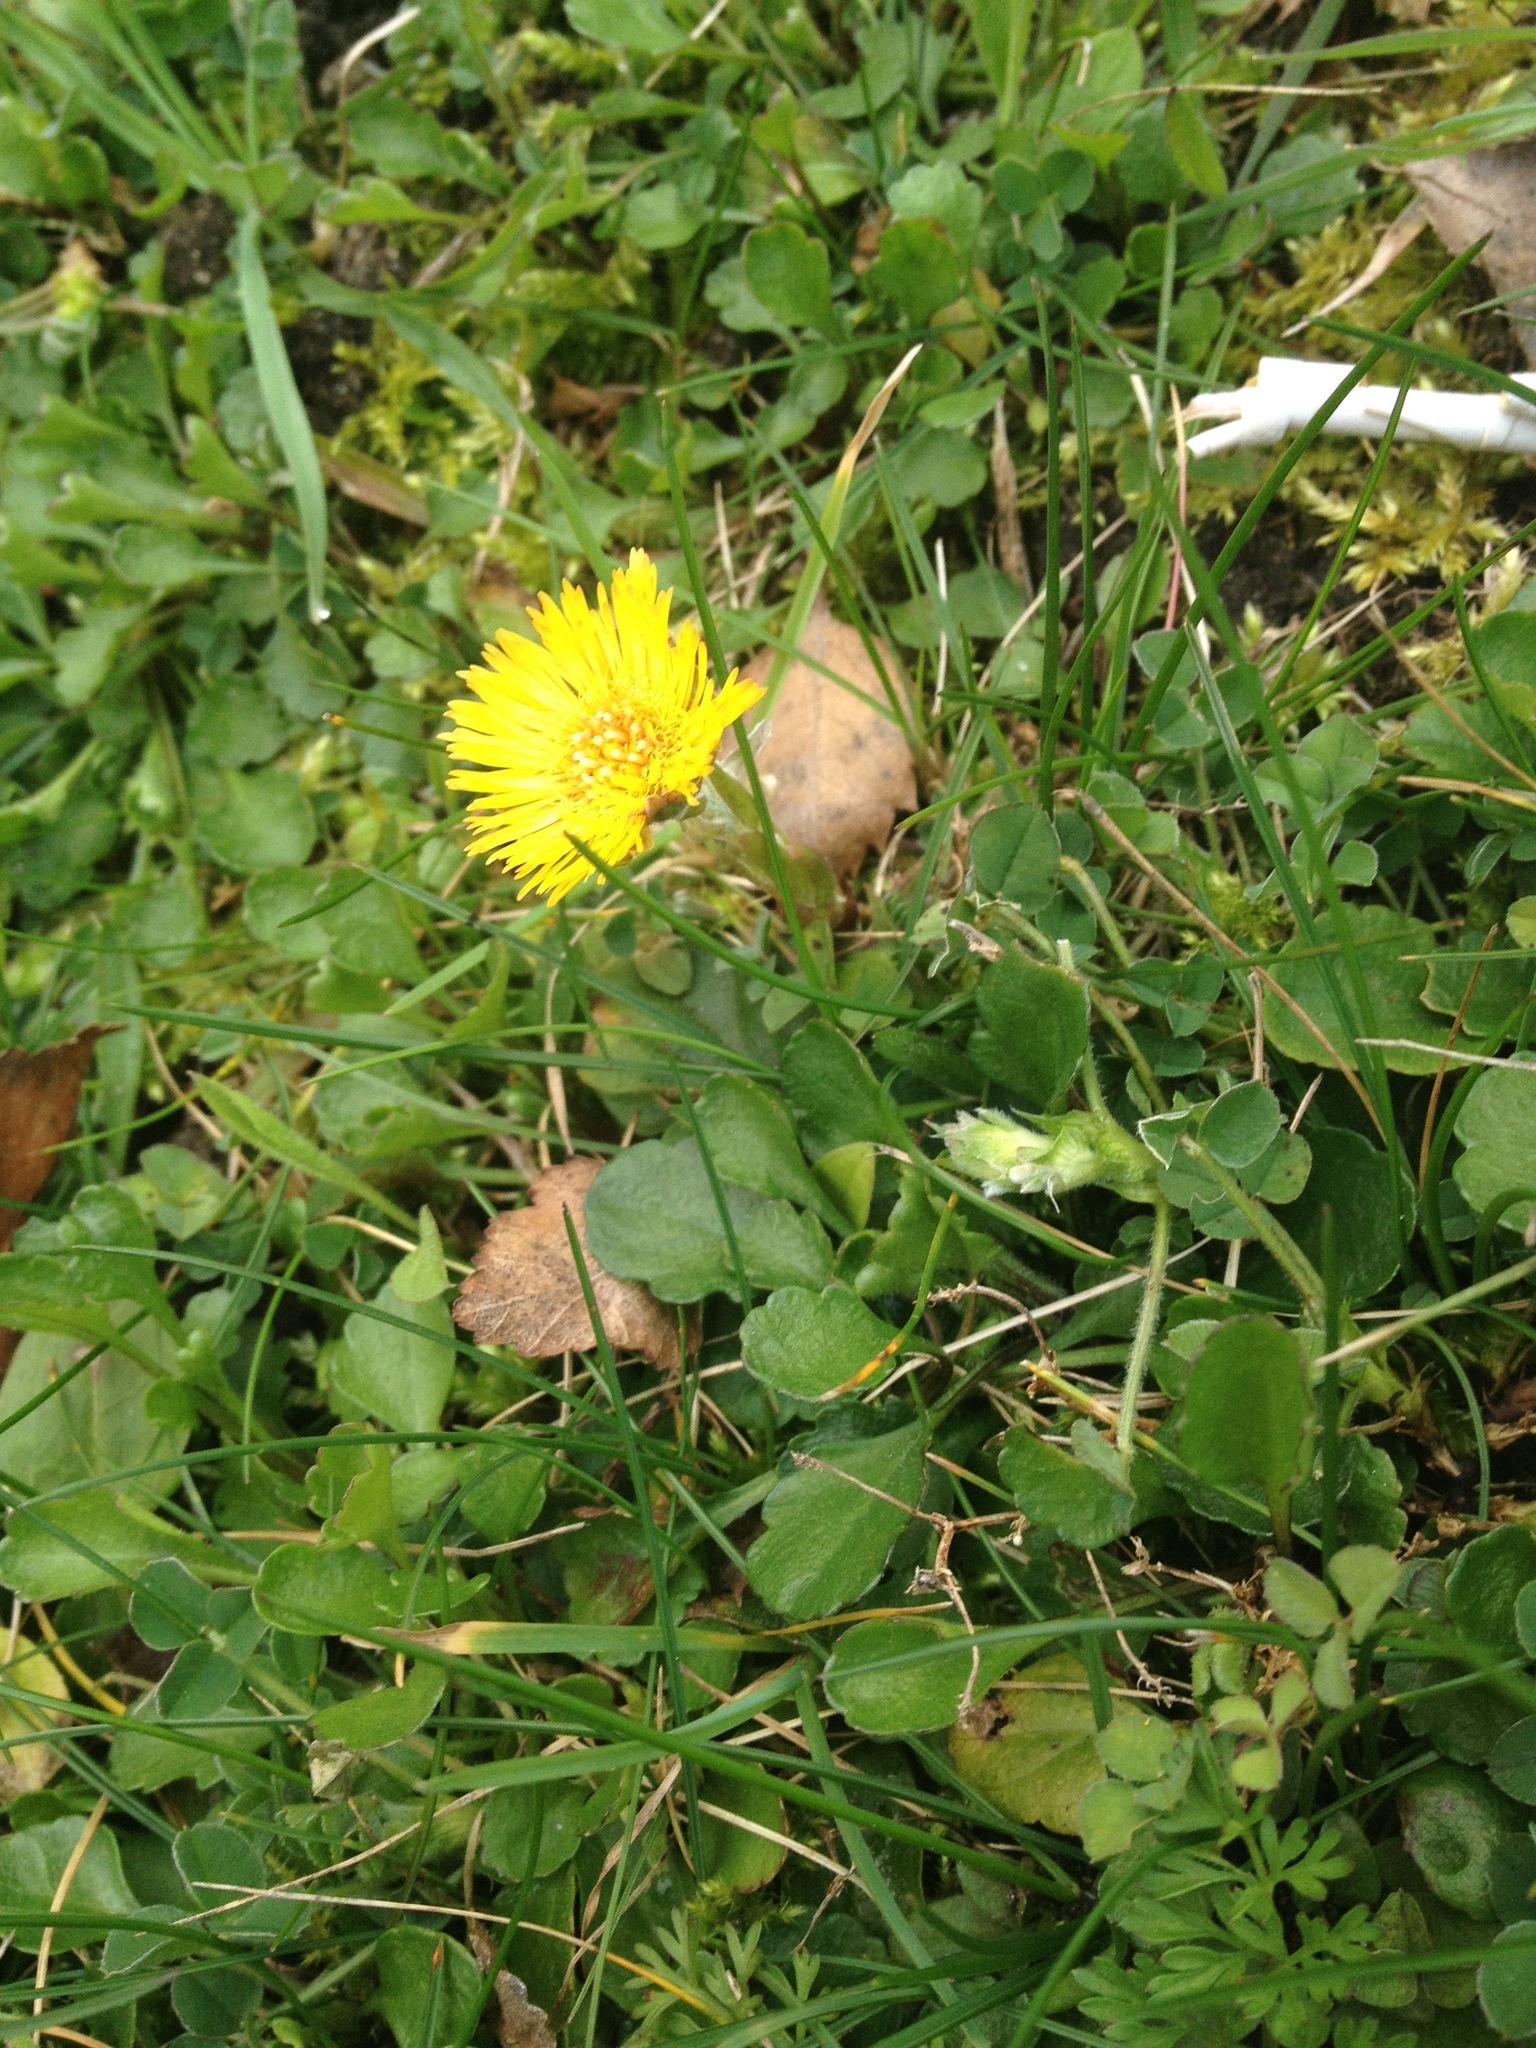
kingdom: Plantae
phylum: Tracheophyta
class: Magnoliopsida
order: Asterales
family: Asteraceae
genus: Tussilago
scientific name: Tussilago farfara
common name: Coltsfoot
